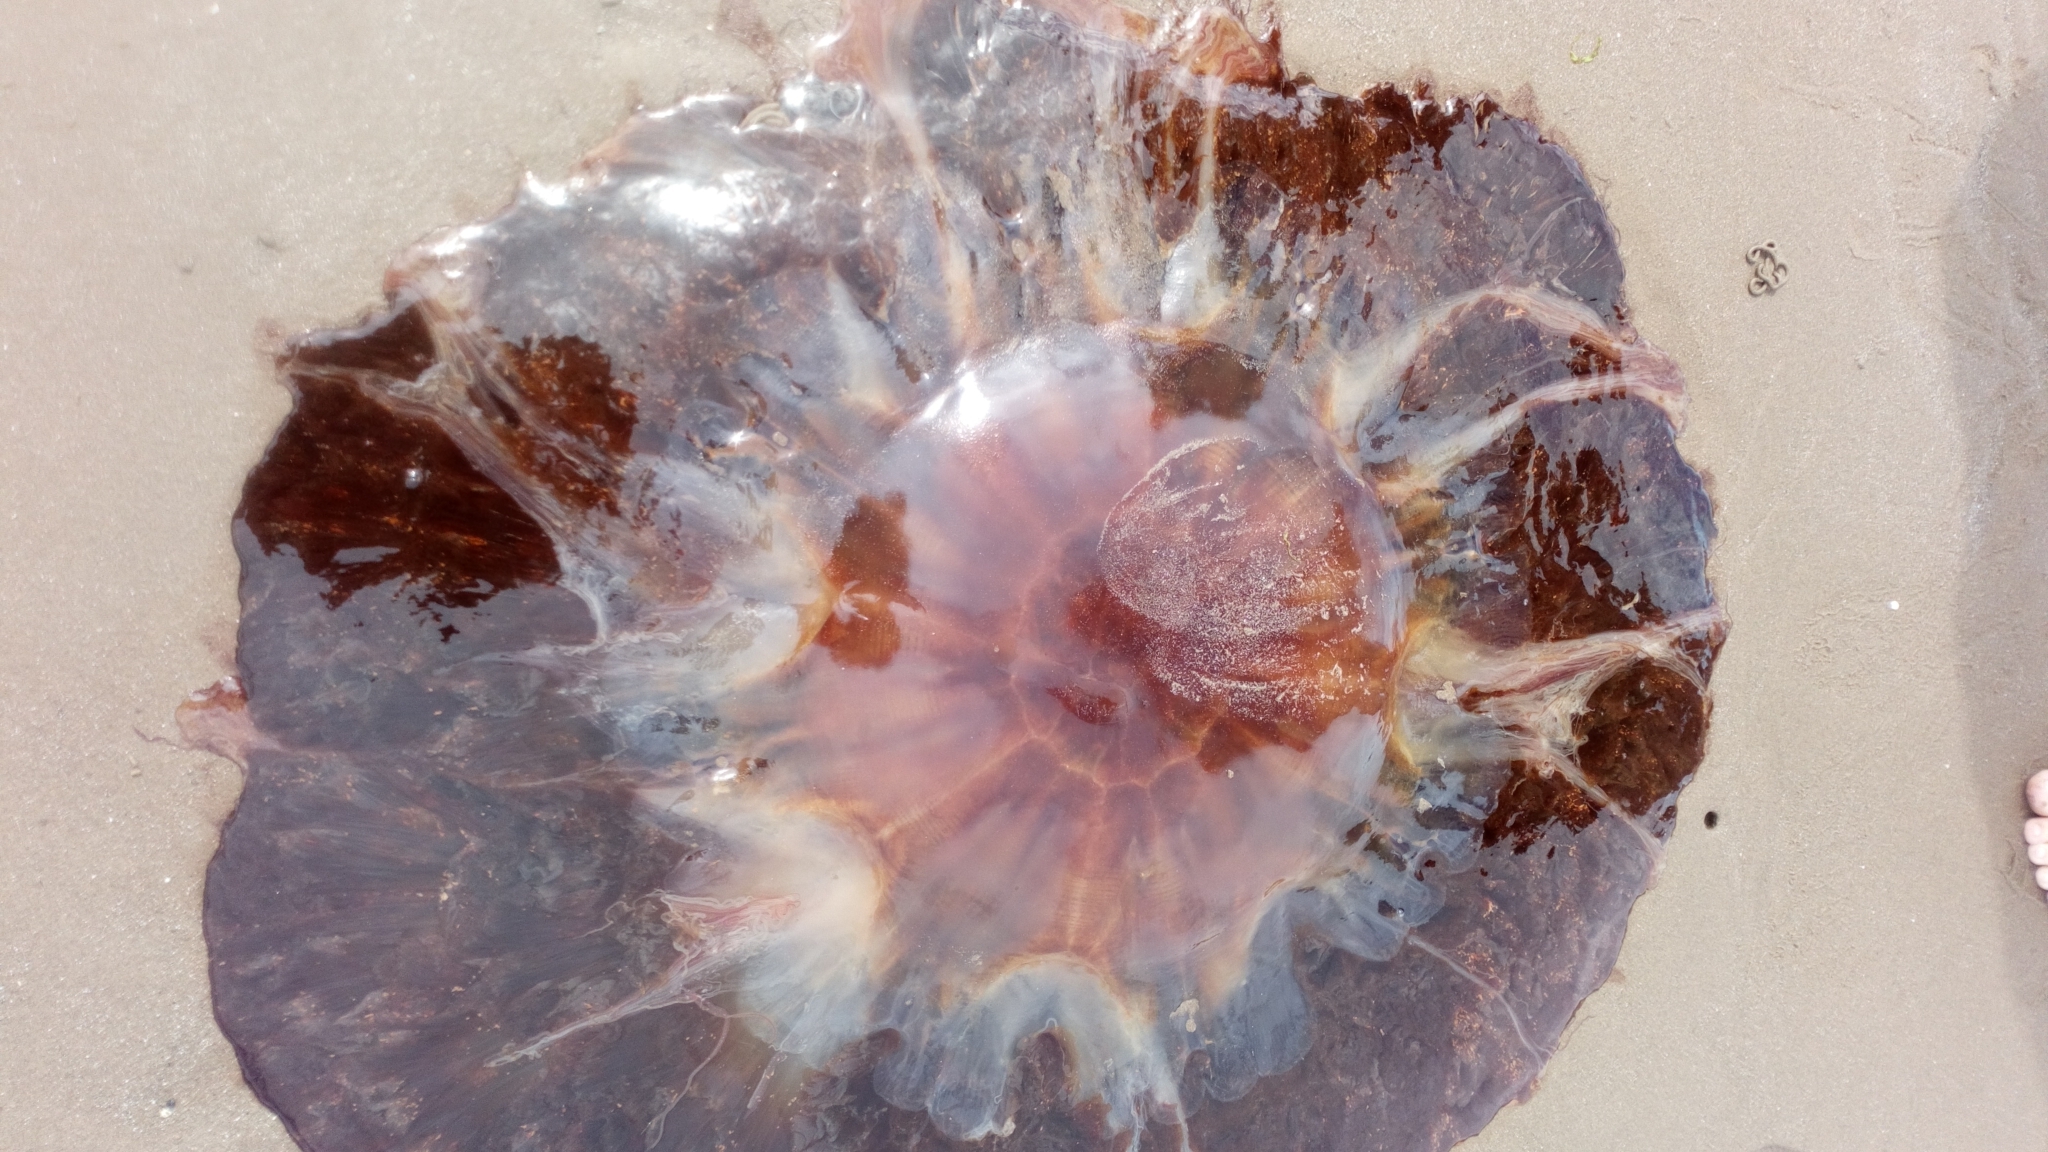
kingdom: Animalia
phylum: Cnidaria
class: Scyphozoa
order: Semaeostomeae
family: Cyaneidae
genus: Cyanea
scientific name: Cyanea capillata
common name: Lion's mane jellyfish
